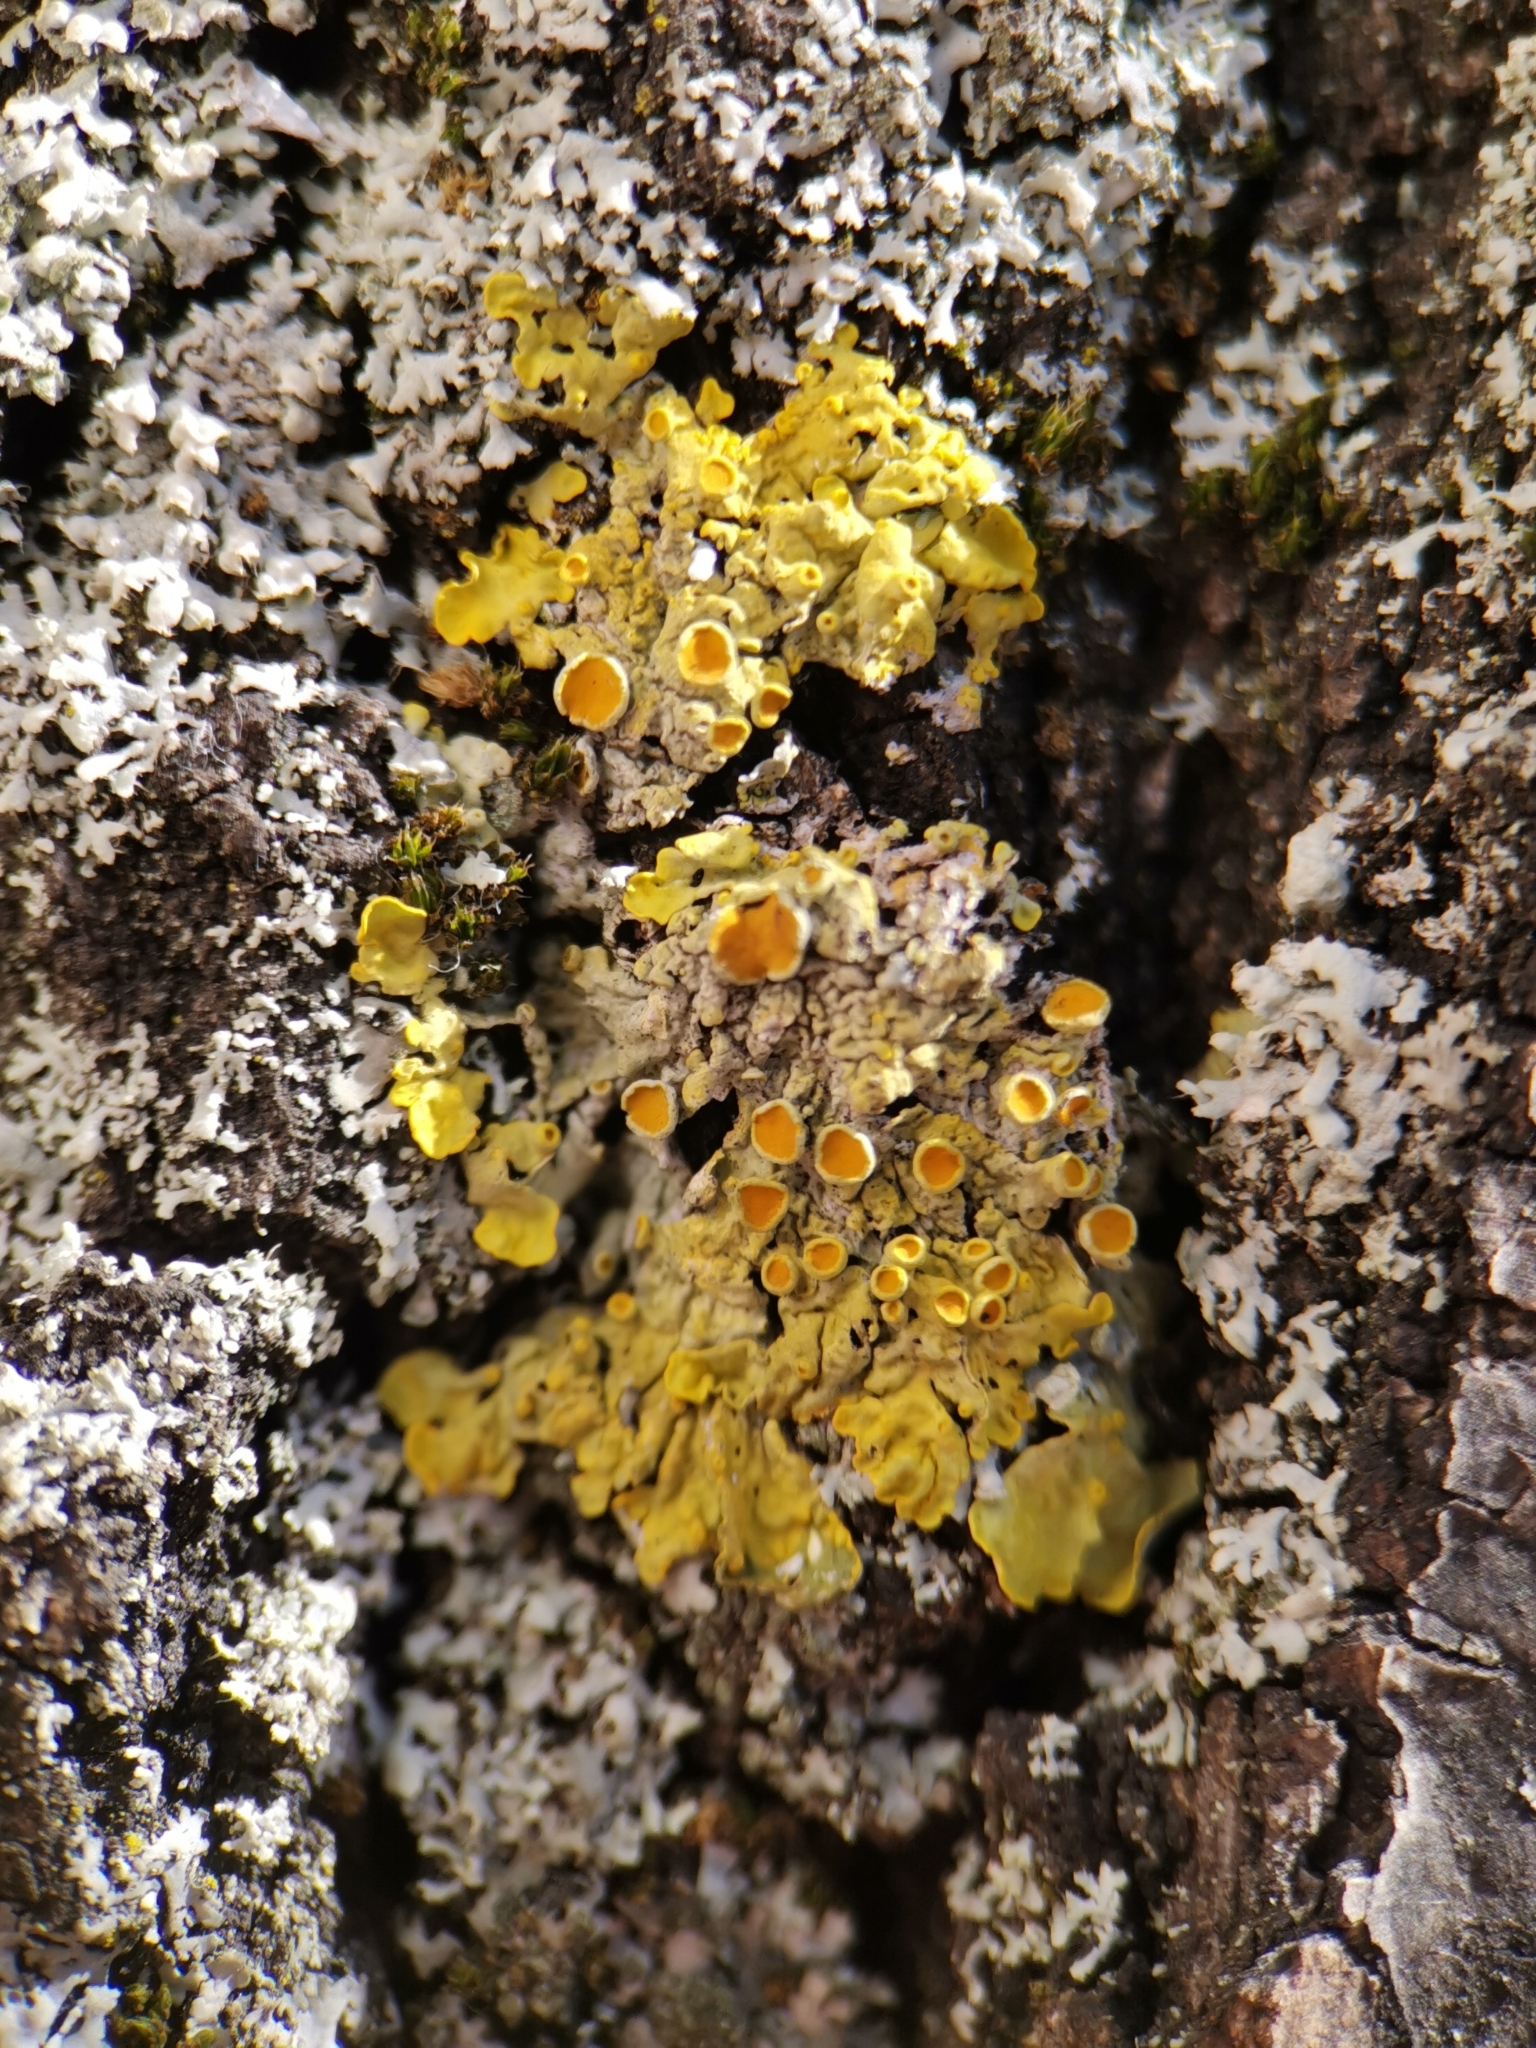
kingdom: Fungi
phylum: Ascomycota
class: Lecanoromycetes
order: Teloschistales
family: Teloschistaceae
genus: Xanthoria
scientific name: Xanthoria parietina
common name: Common orange lichen
